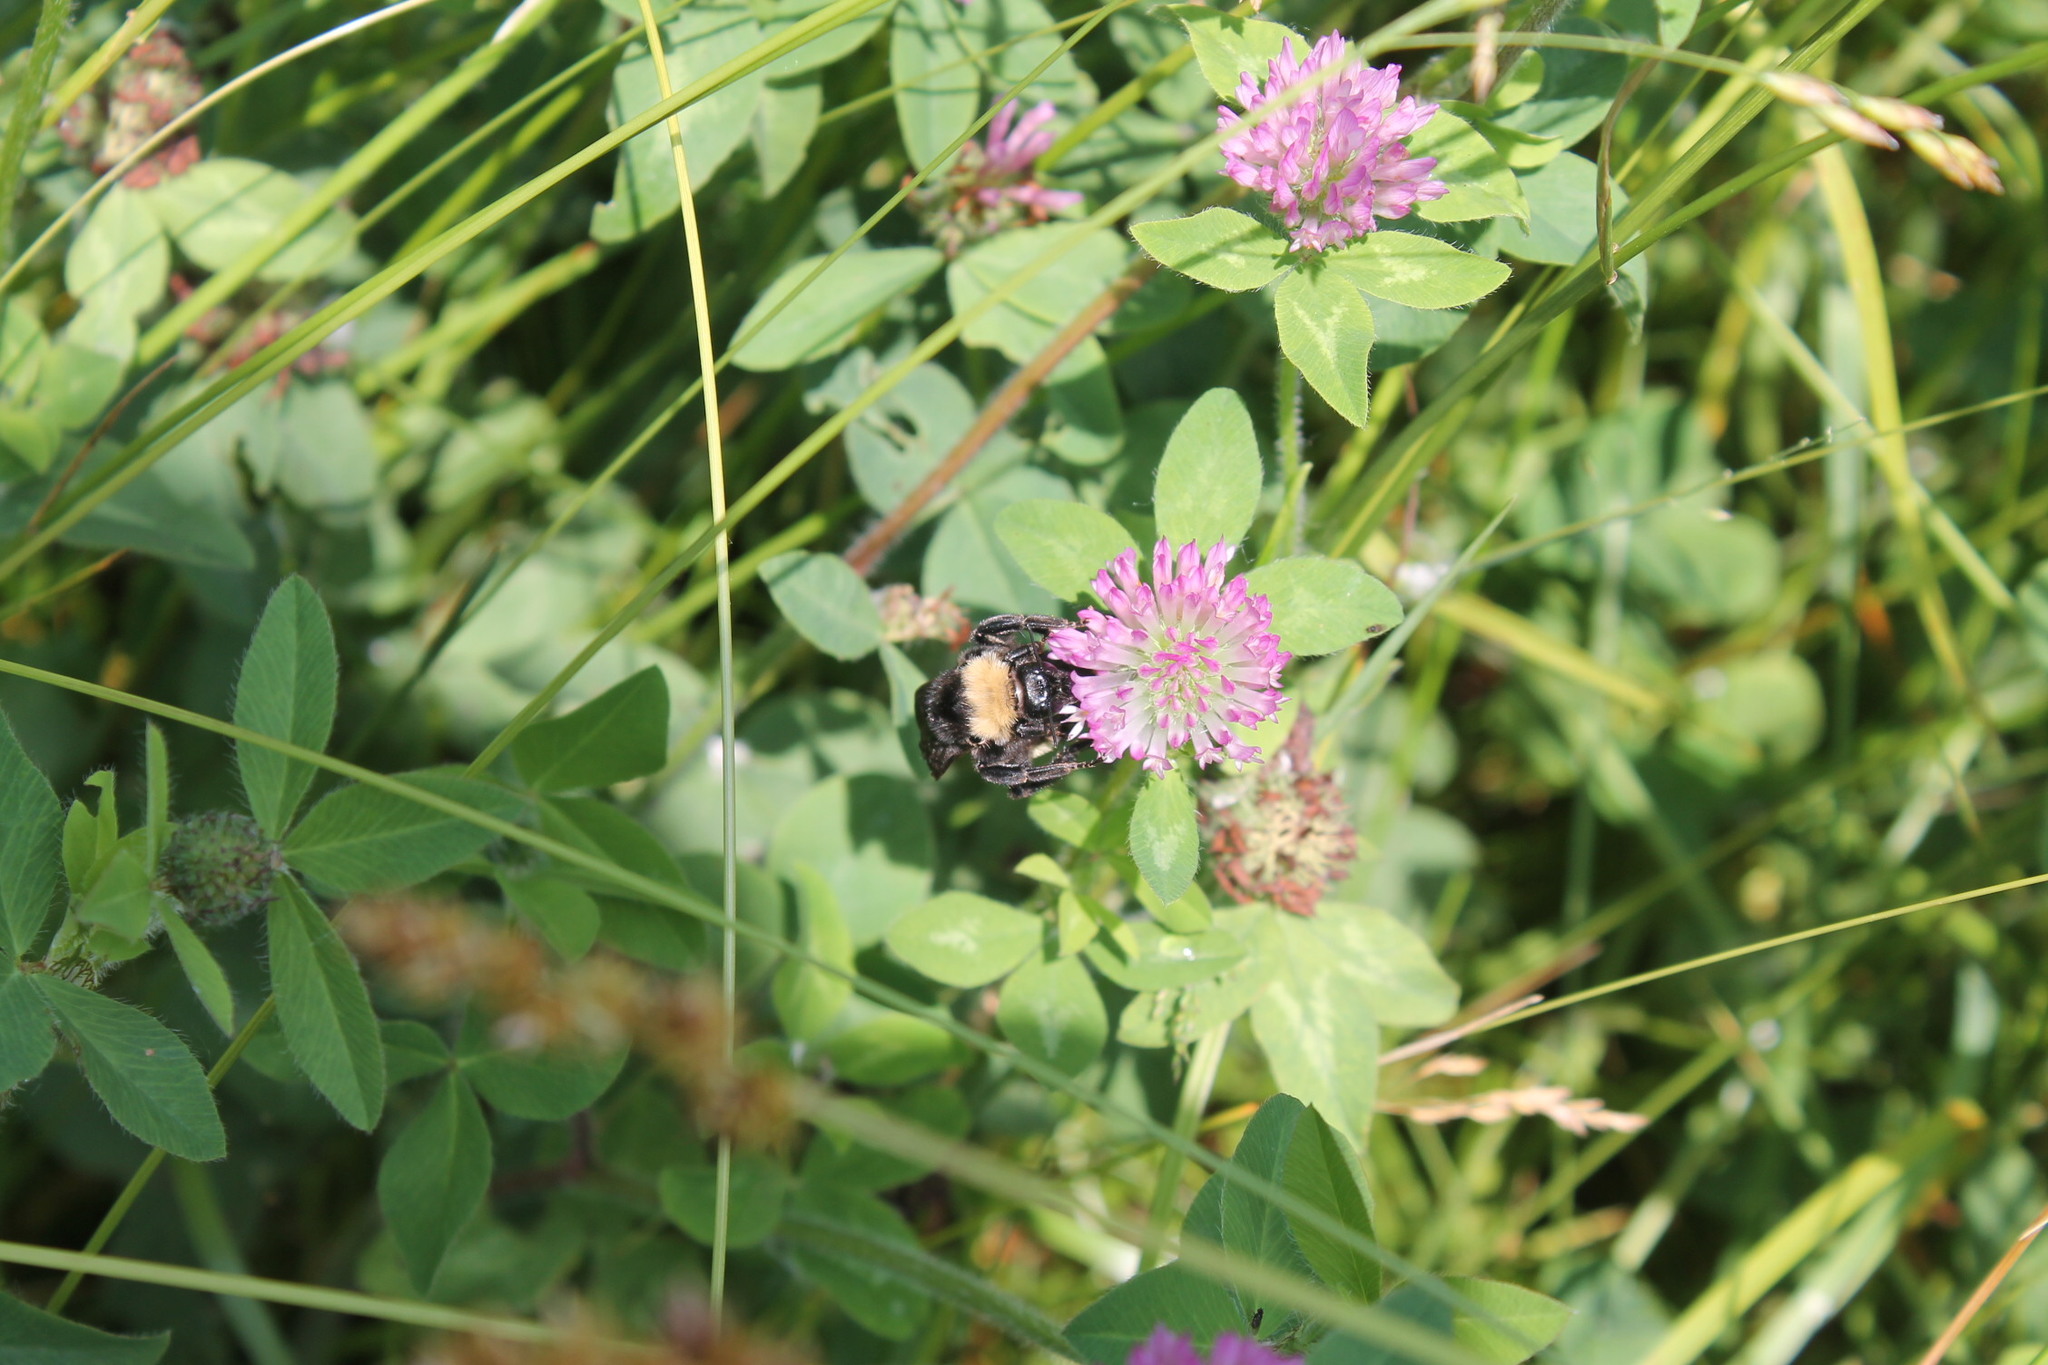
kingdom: Animalia
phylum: Arthropoda
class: Insecta
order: Hymenoptera
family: Apidae
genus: Bombus
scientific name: Bombus pensylvanicus
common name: Bumble bee
